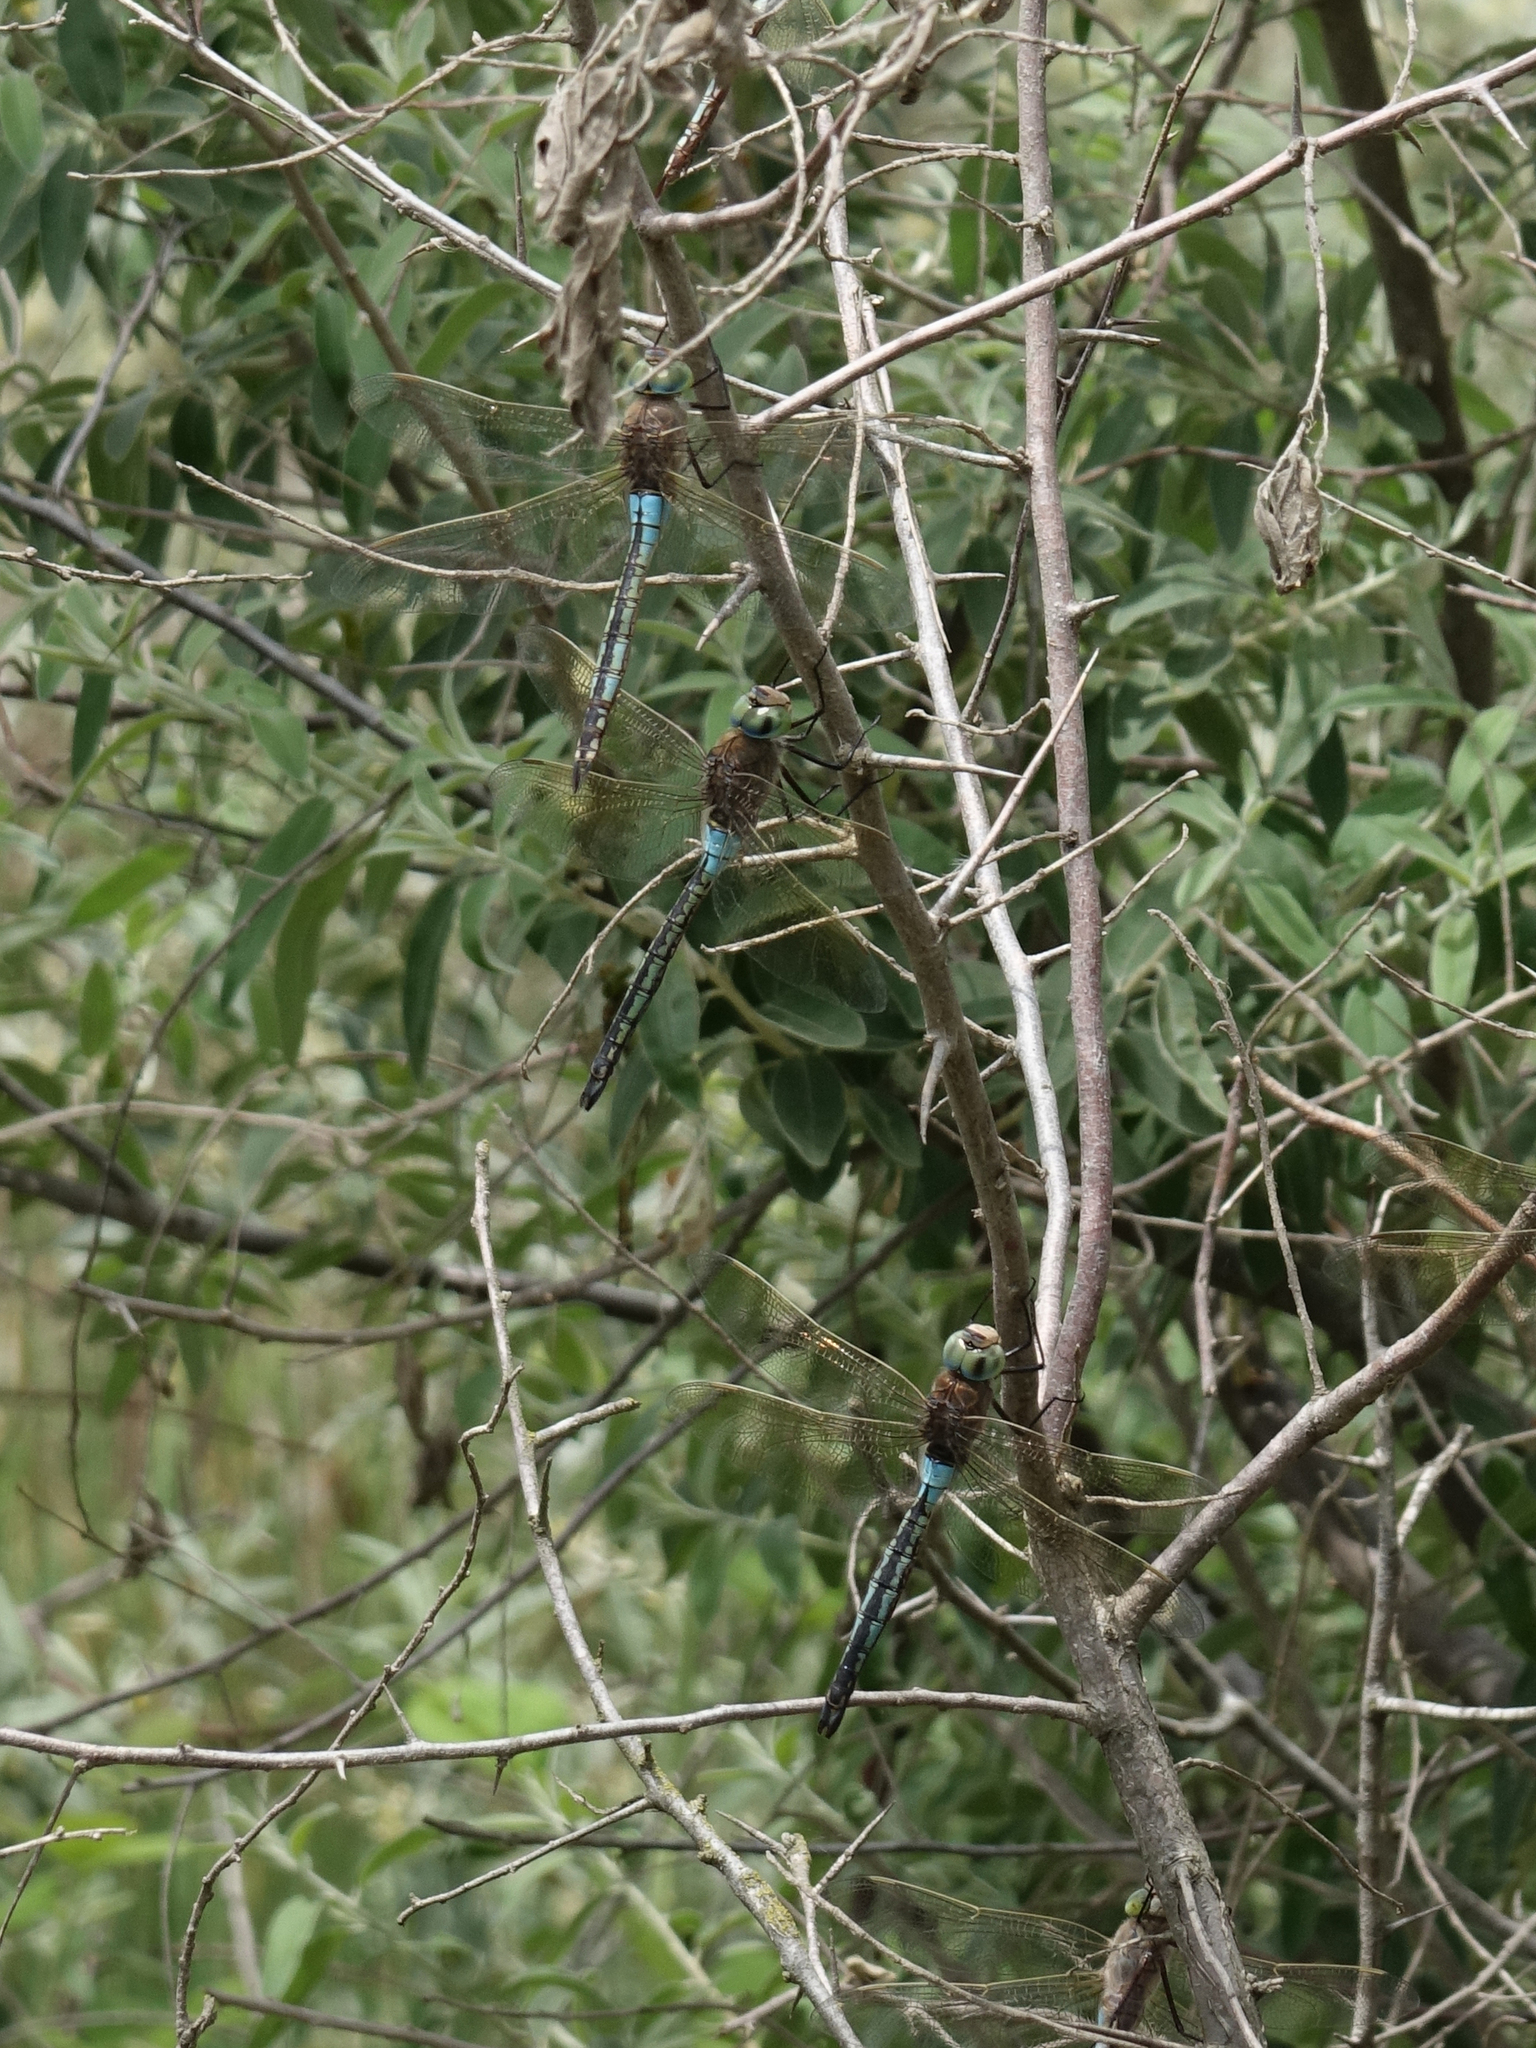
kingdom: Animalia
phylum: Arthropoda
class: Insecta
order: Odonata
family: Aeshnidae
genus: Anax
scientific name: Anax parthenope
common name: Lesser emperor
